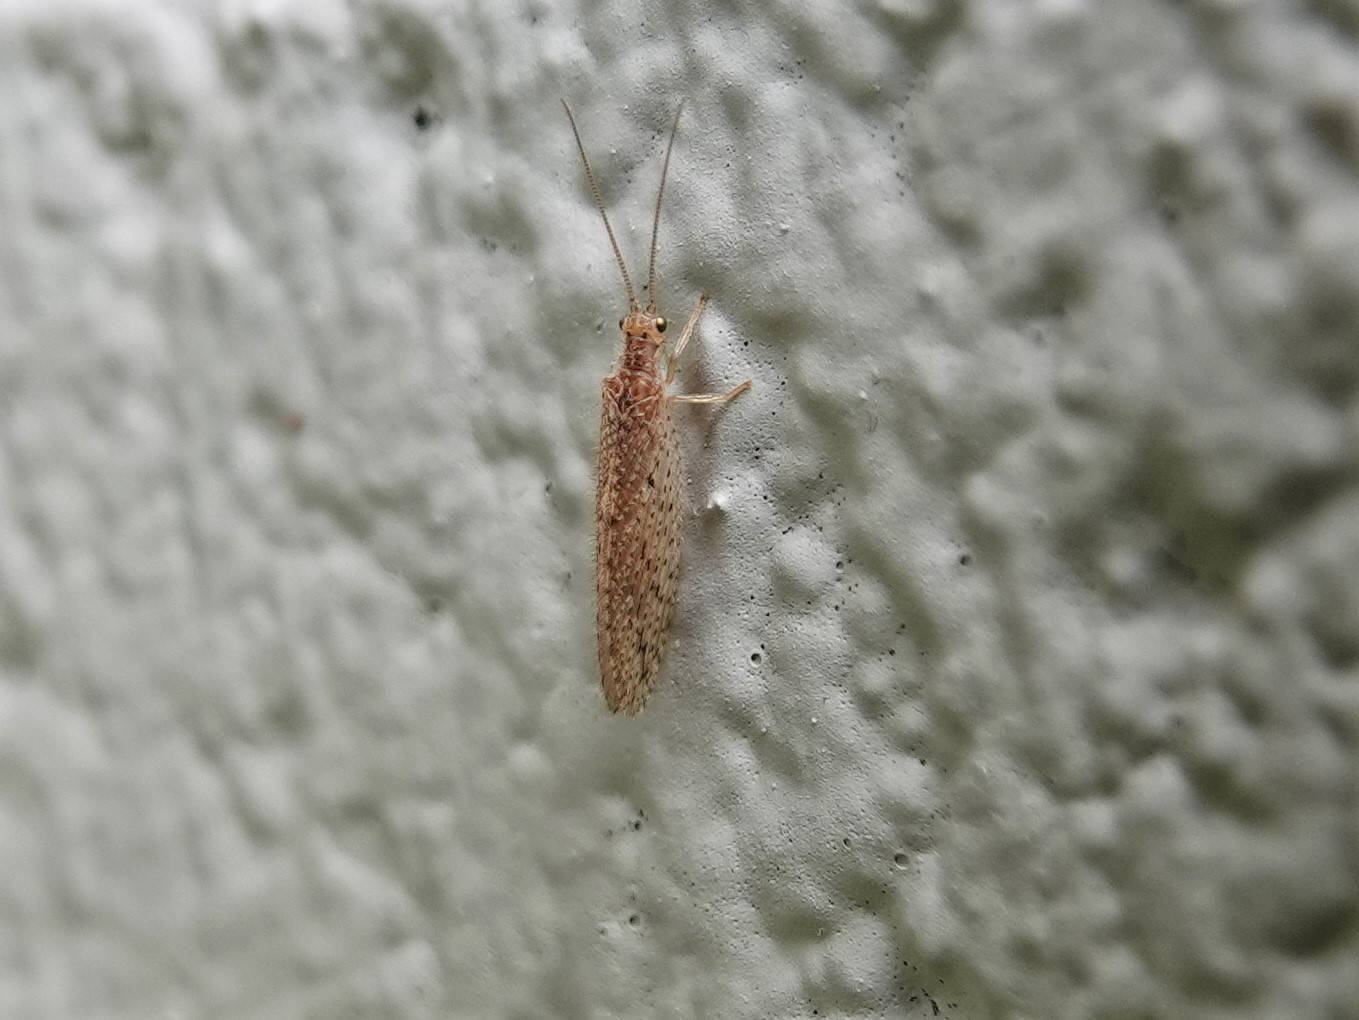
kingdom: Animalia
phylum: Arthropoda
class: Insecta
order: Neuroptera
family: Hemerobiidae
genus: Micromus
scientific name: Micromus tasmaniae
